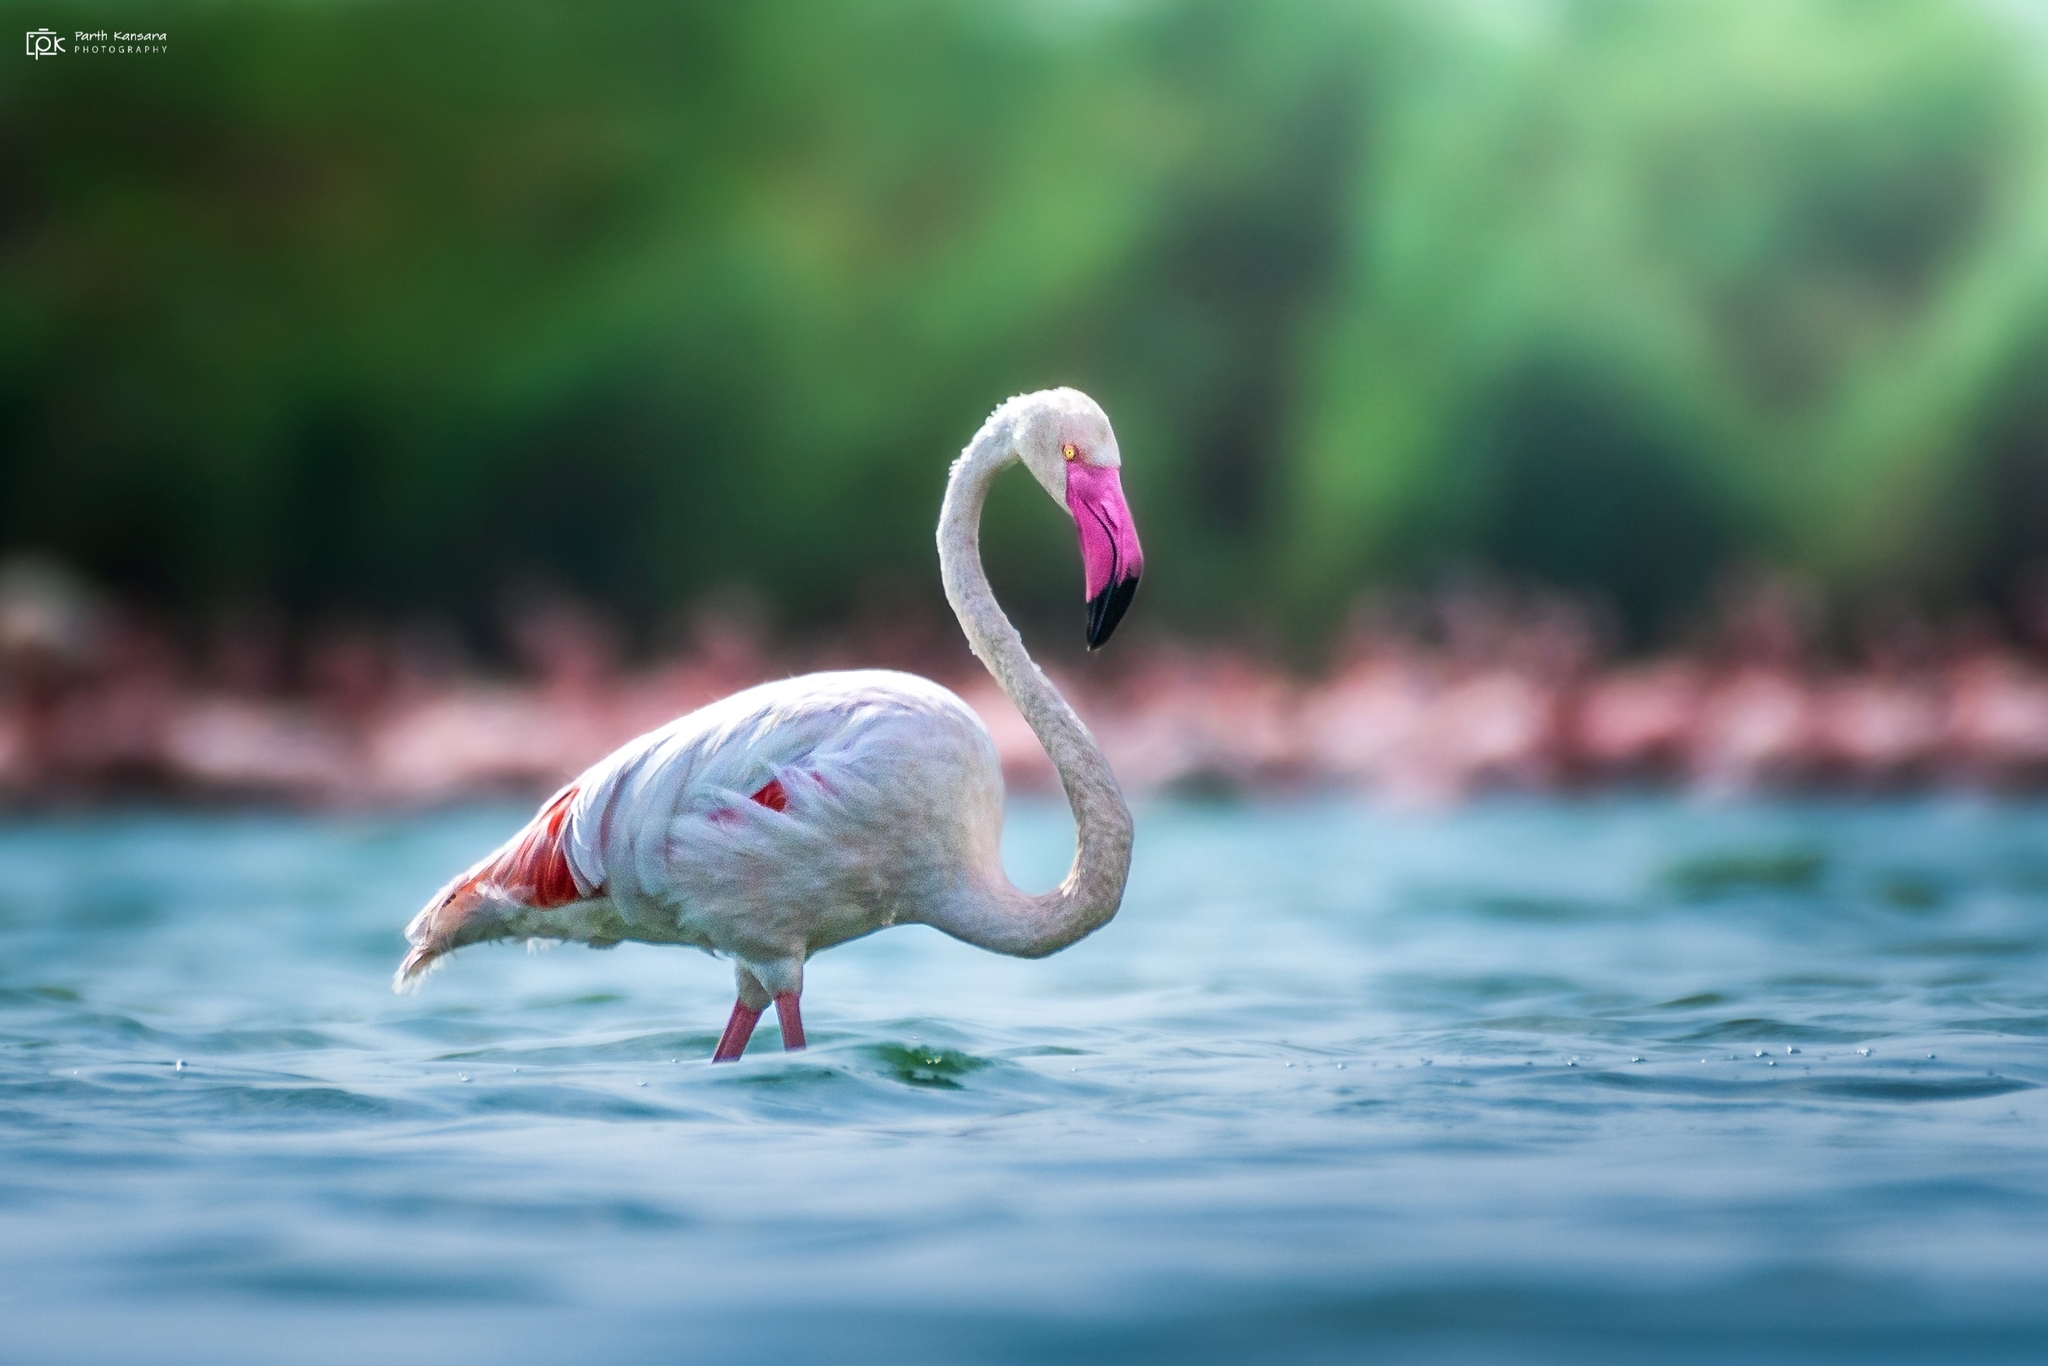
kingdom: Animalia
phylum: Chordata
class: Aves
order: Phoenicopteriformes
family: Phoenicopteridae
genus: Phoenicopterus
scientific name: Phoenicopterus roseus
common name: Greater flamingo
